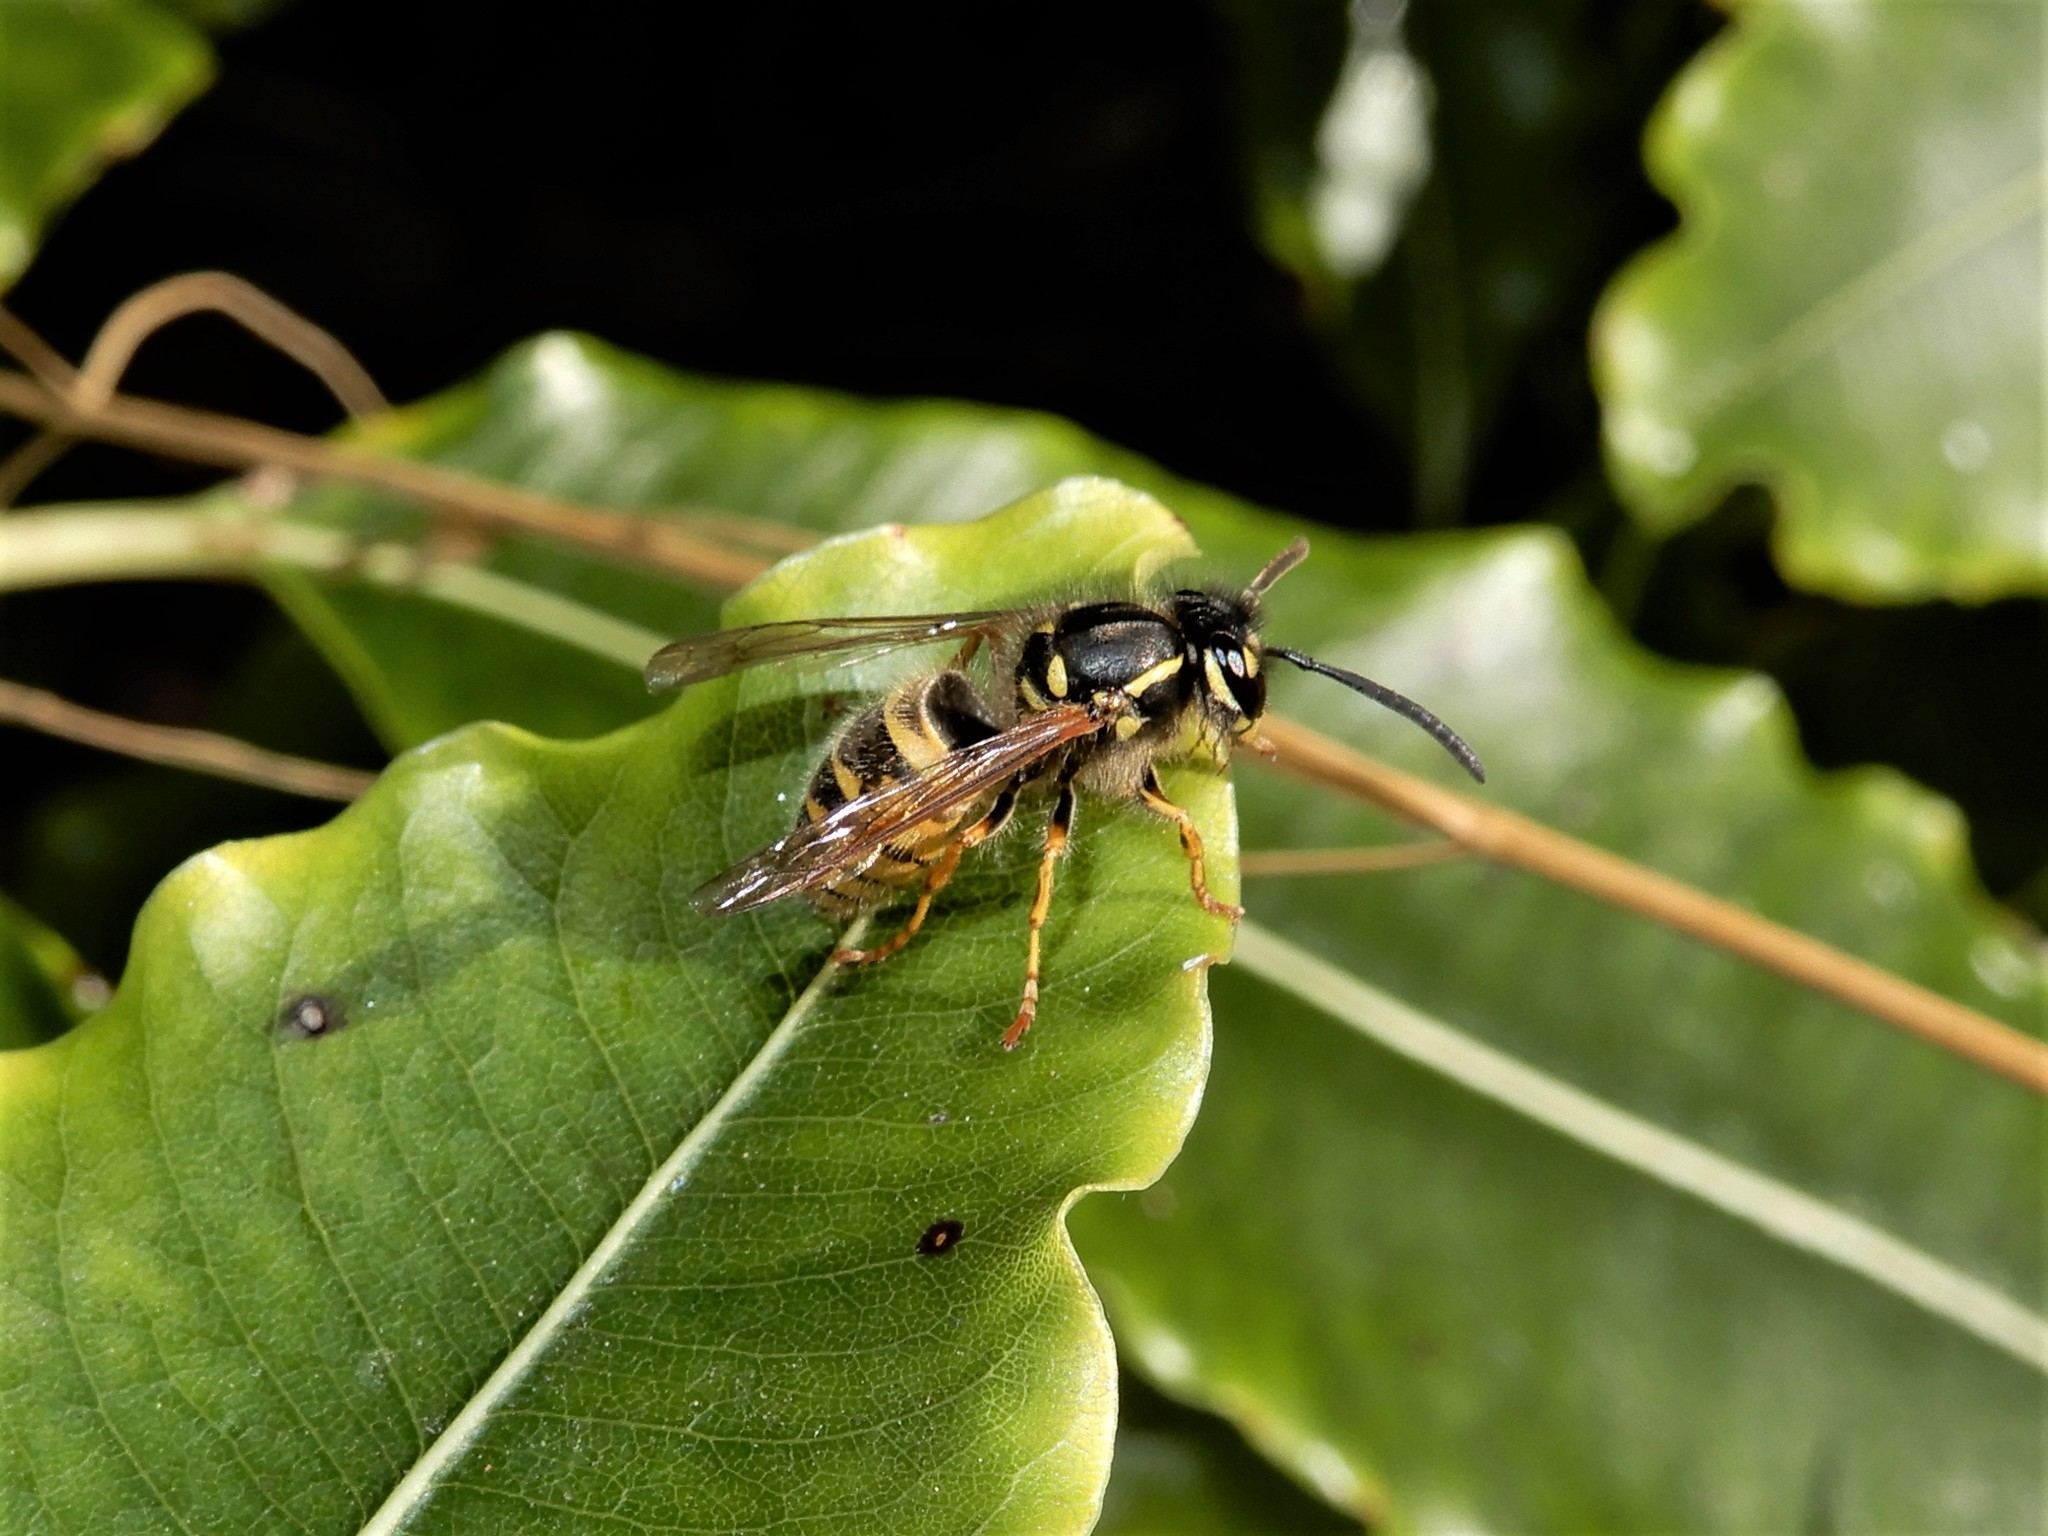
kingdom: Animalia
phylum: Arthropoda
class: Insecta
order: Hymenoptera
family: Vespidae
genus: Vespula
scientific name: Vespula vulgaris
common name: Common wasp
